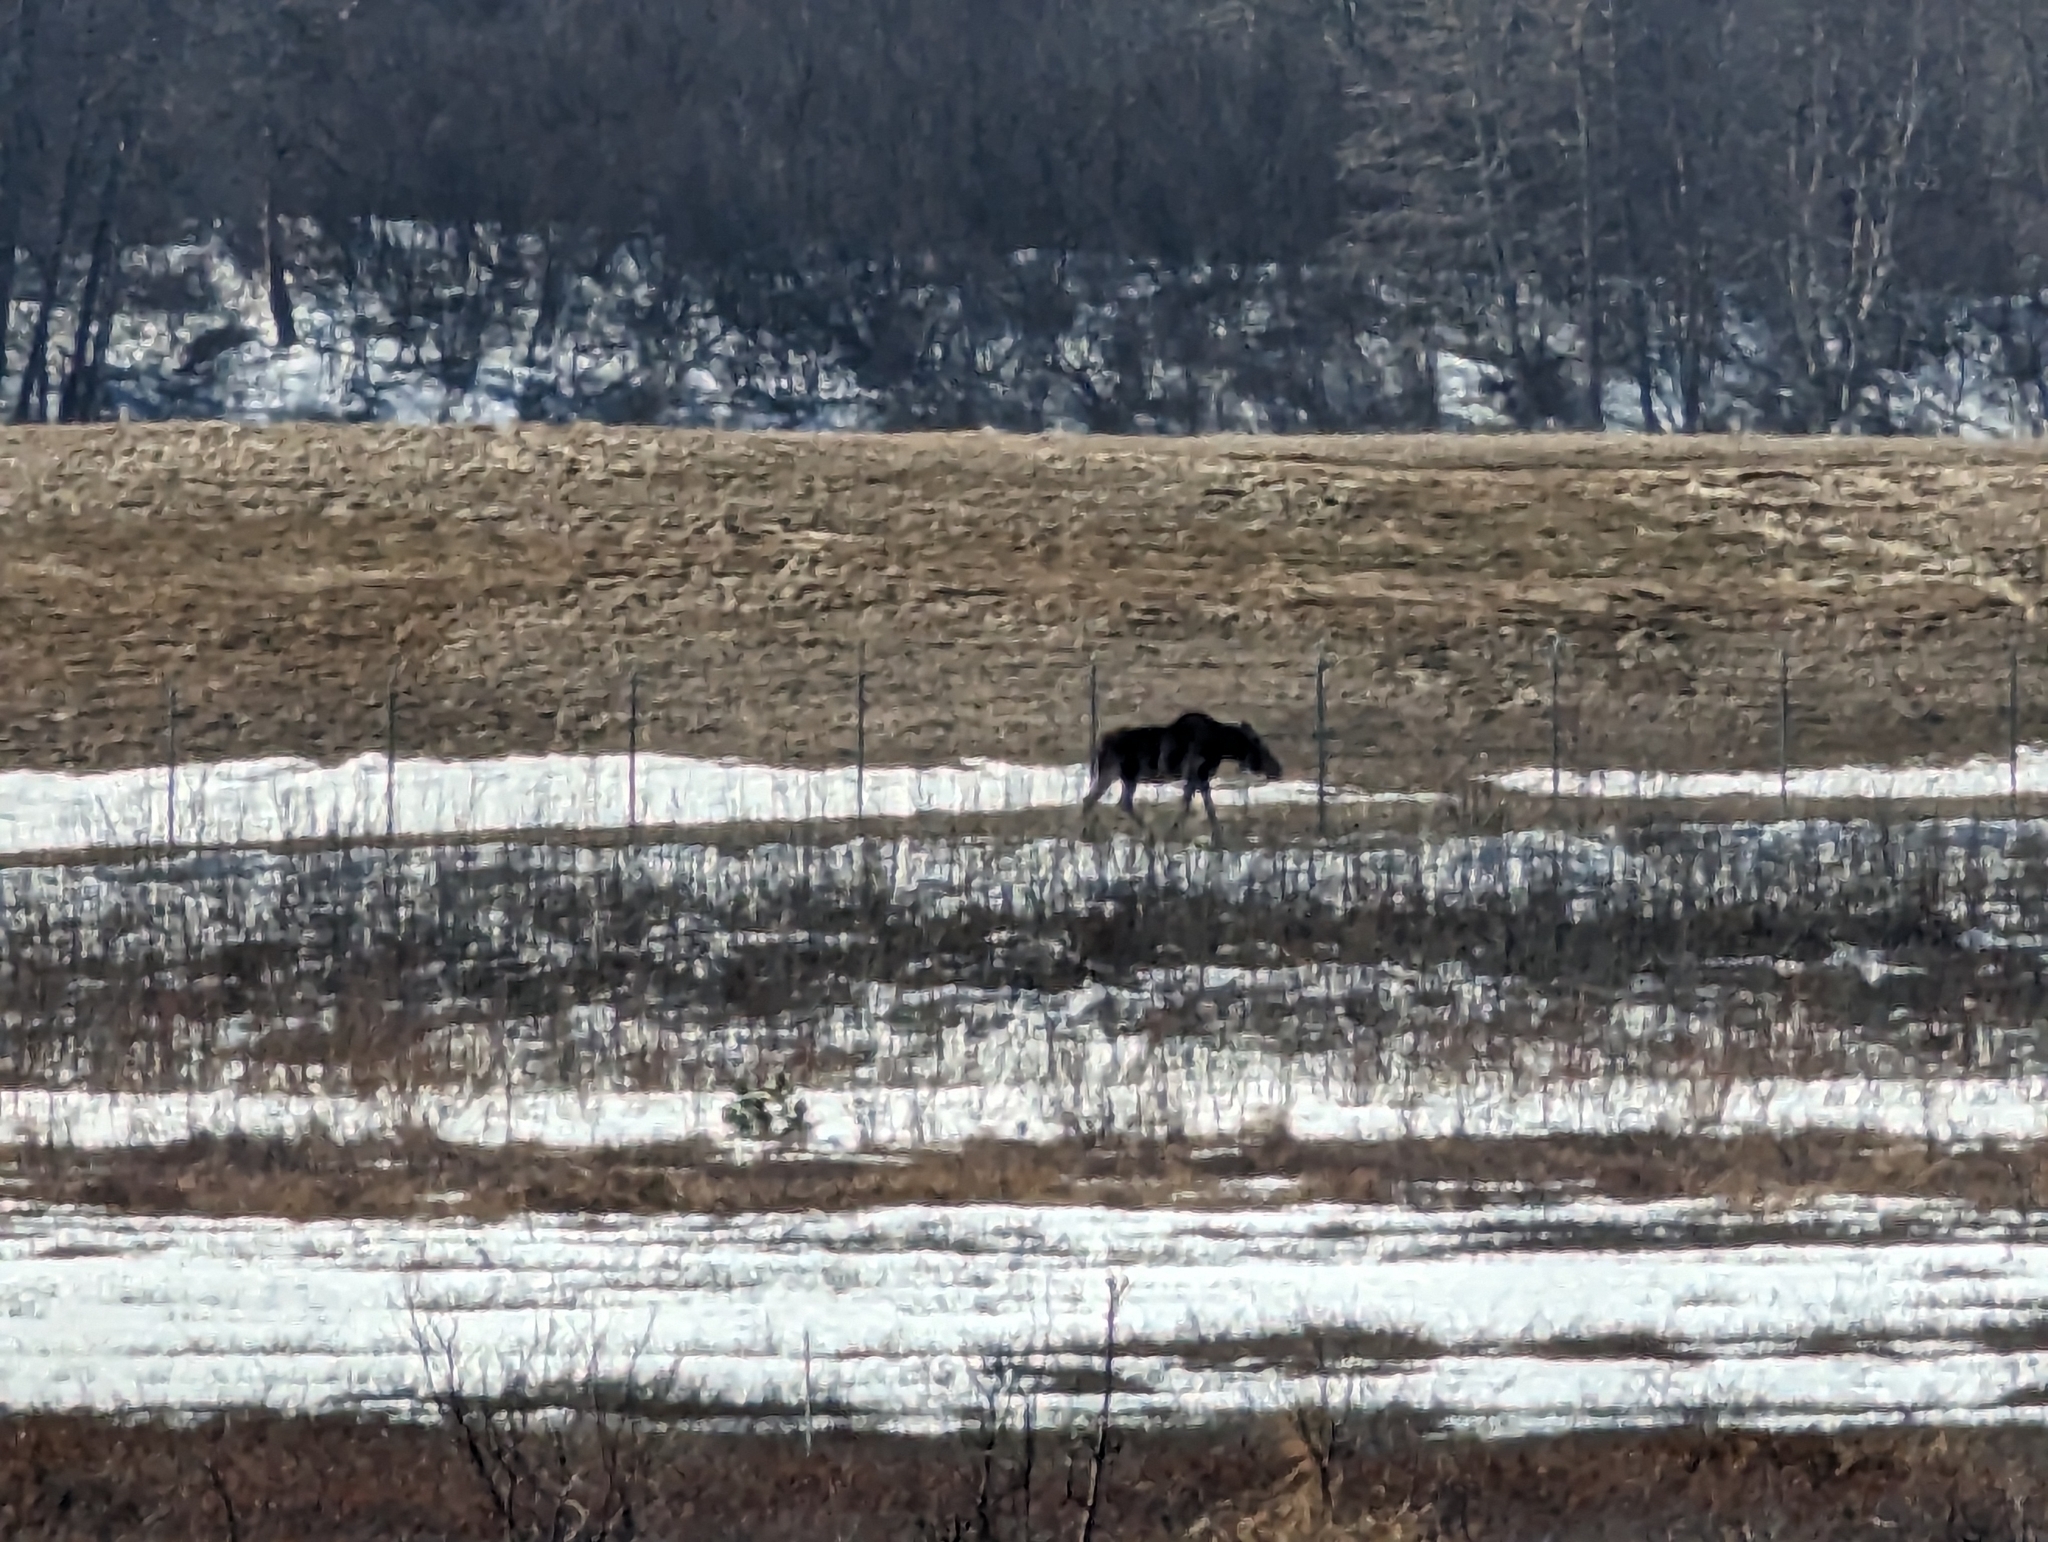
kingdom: Animalia
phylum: Chordata
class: Mammalia
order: Artiodactyla
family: Cervidae
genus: Alces
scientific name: Alces alces
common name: Moose
